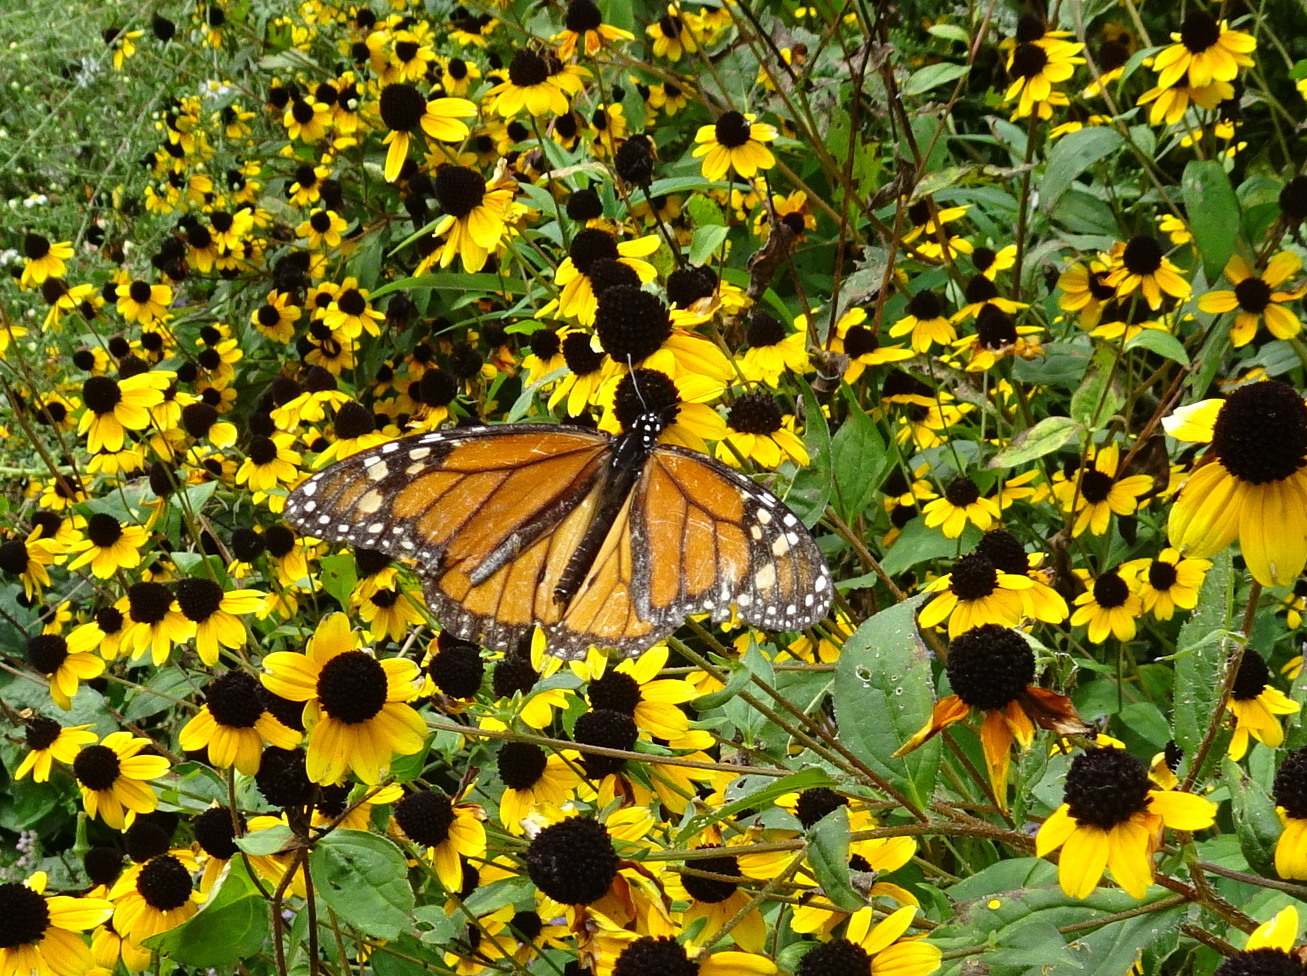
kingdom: Animalia
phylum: Arthropoda
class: Insecta
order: Lepidoptera
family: Nymphalidae
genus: Danaus
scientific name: Danaus plexippus
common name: Monarch
